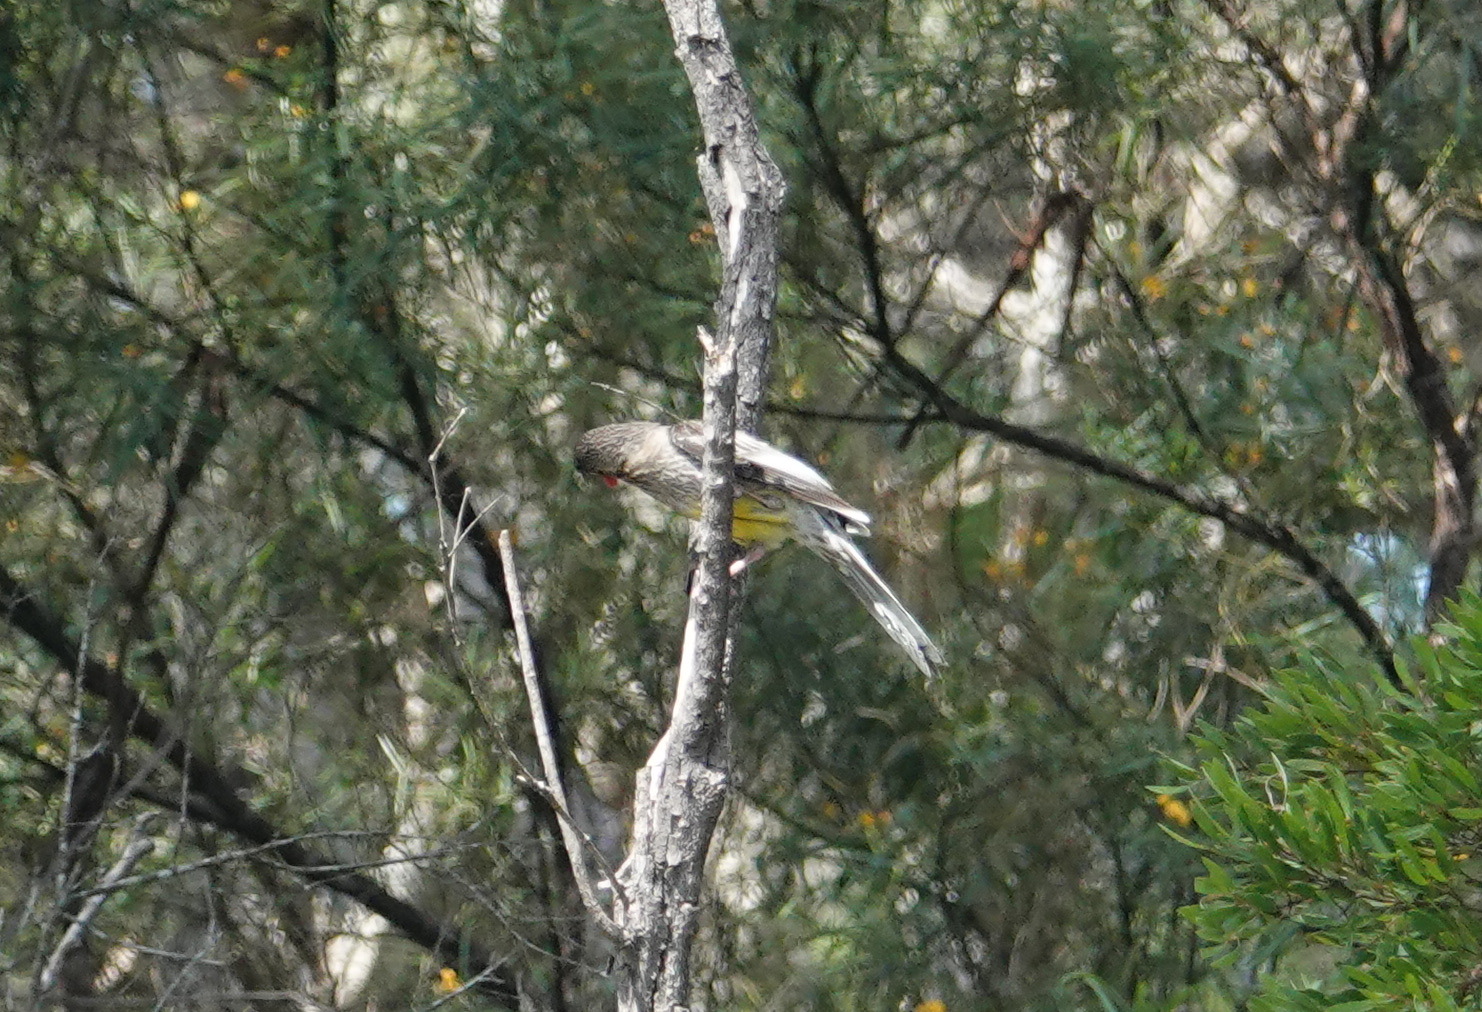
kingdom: Animalia
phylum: Chordata
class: Aves
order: Passeriformes
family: Meliphagidae
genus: Anthochaera
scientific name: Anthochaera carunculata
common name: Red wattlebird
